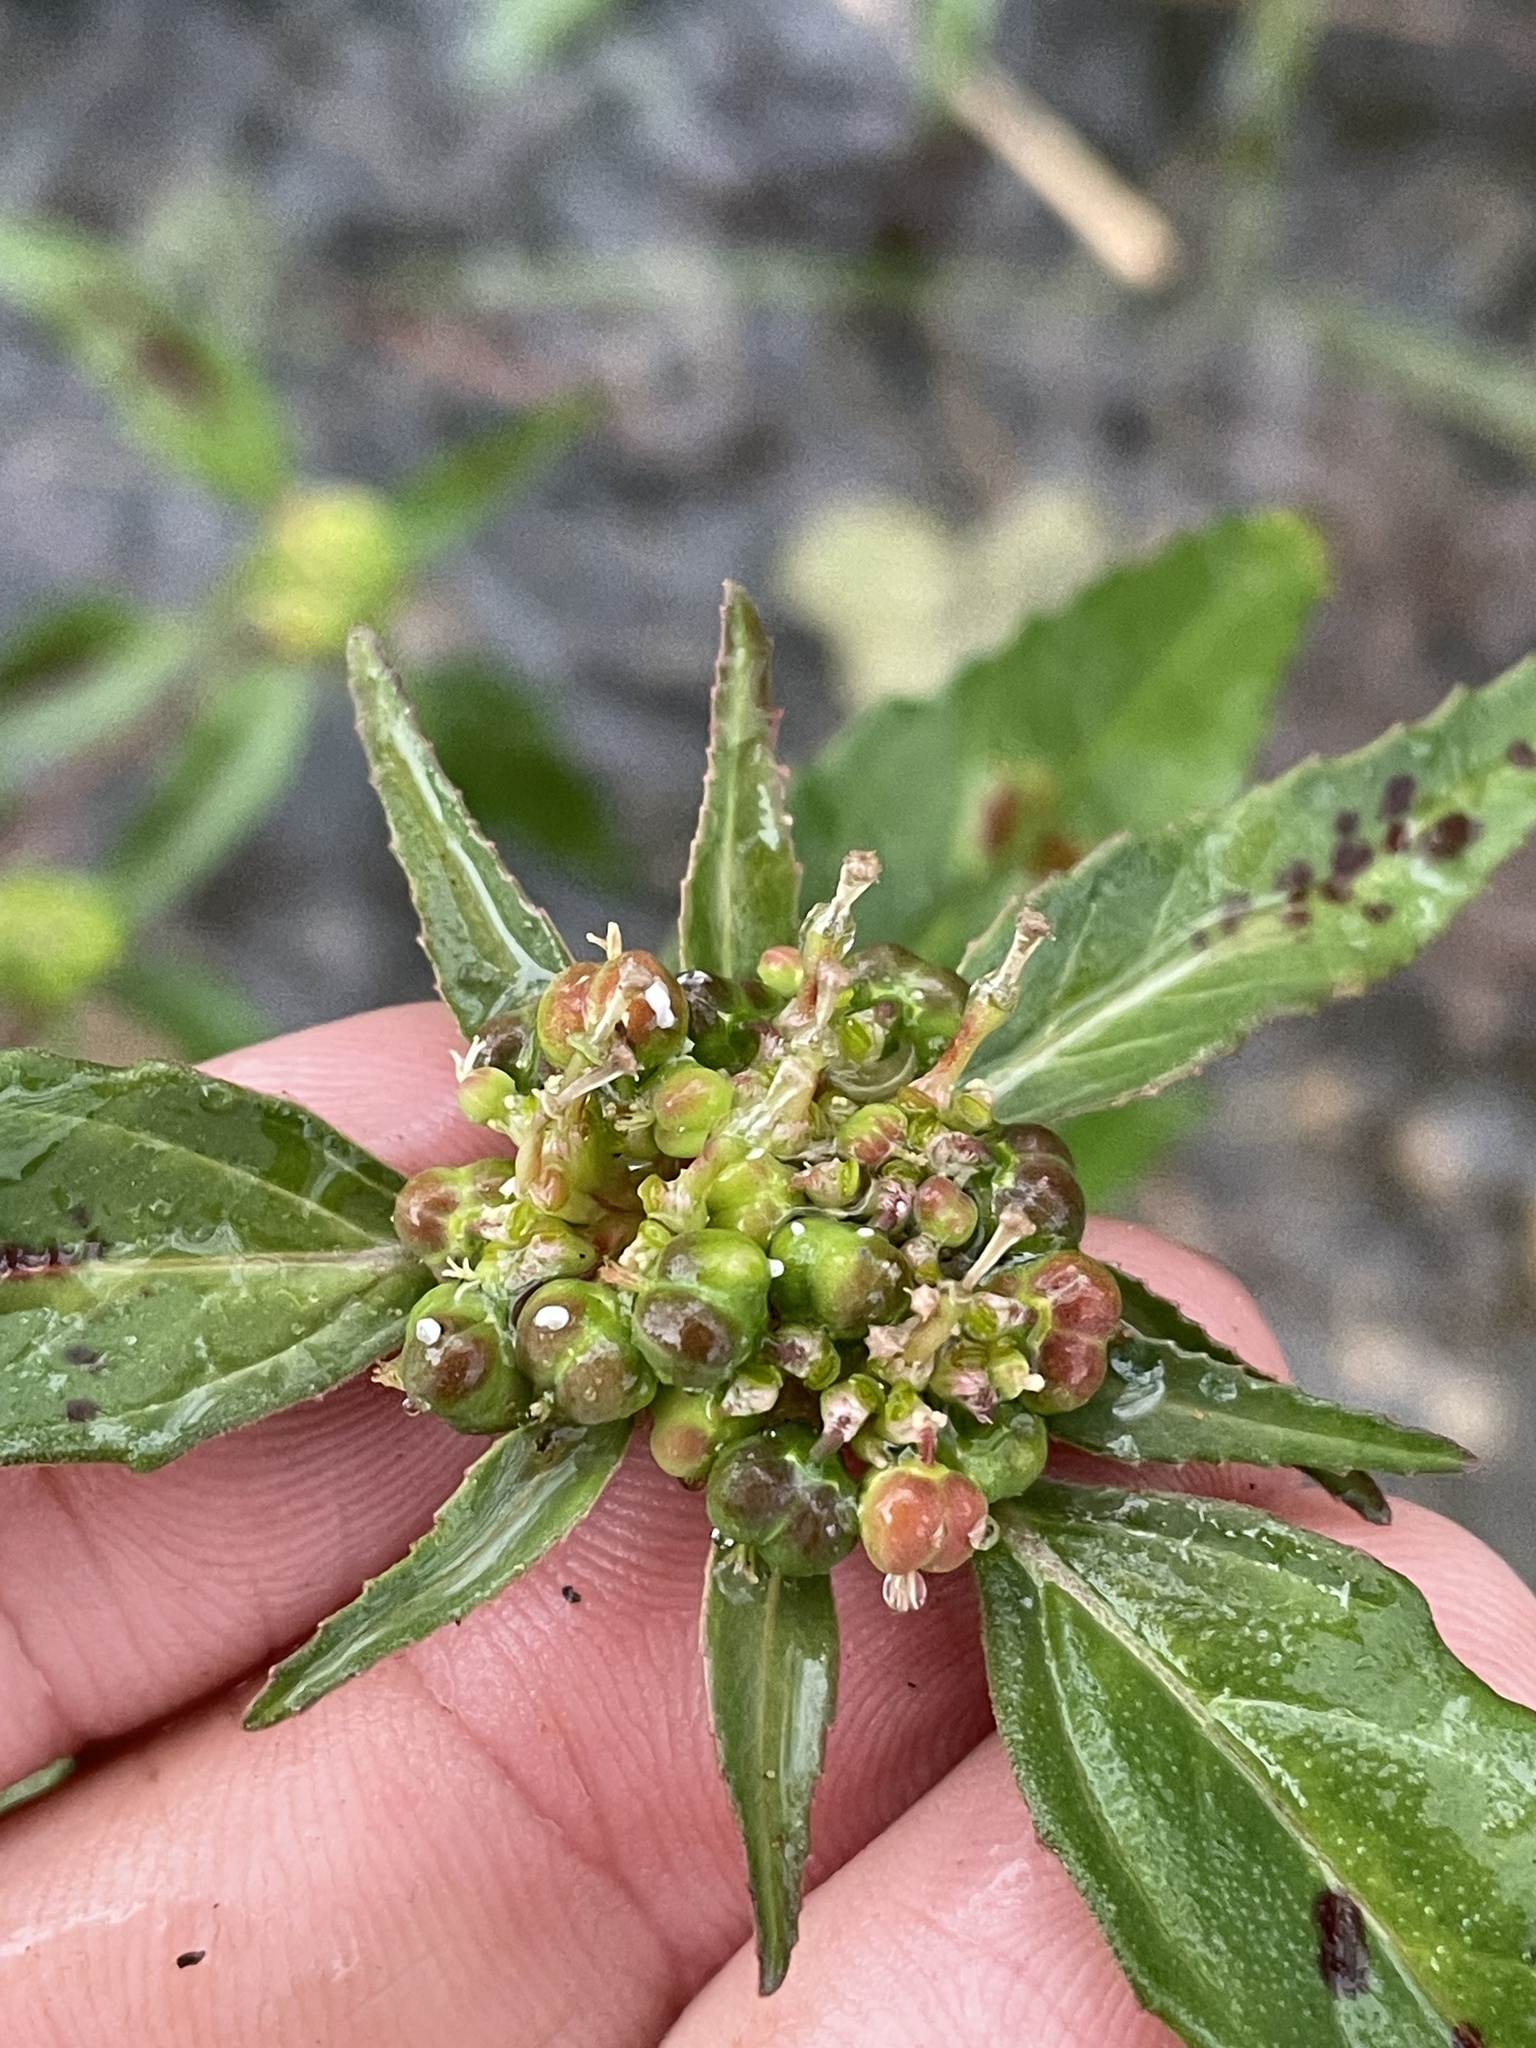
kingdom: Plantae
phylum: Tracheophyta
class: Magnoliopsida
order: Malpighiales
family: Euphorbiaceae
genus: Euphorbia
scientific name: Euphorbia dentata
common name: Dentate spurge
